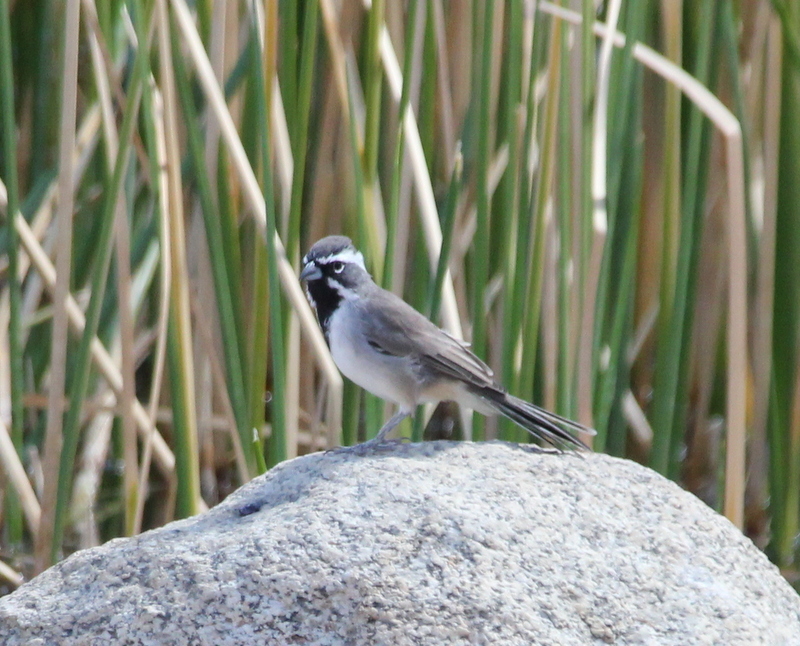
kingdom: Animalia
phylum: Chordata
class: Aves
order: Passeriformes
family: Passerellidae
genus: Amphispiza
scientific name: Amphispiza bilineata
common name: Black-throated sparrow
